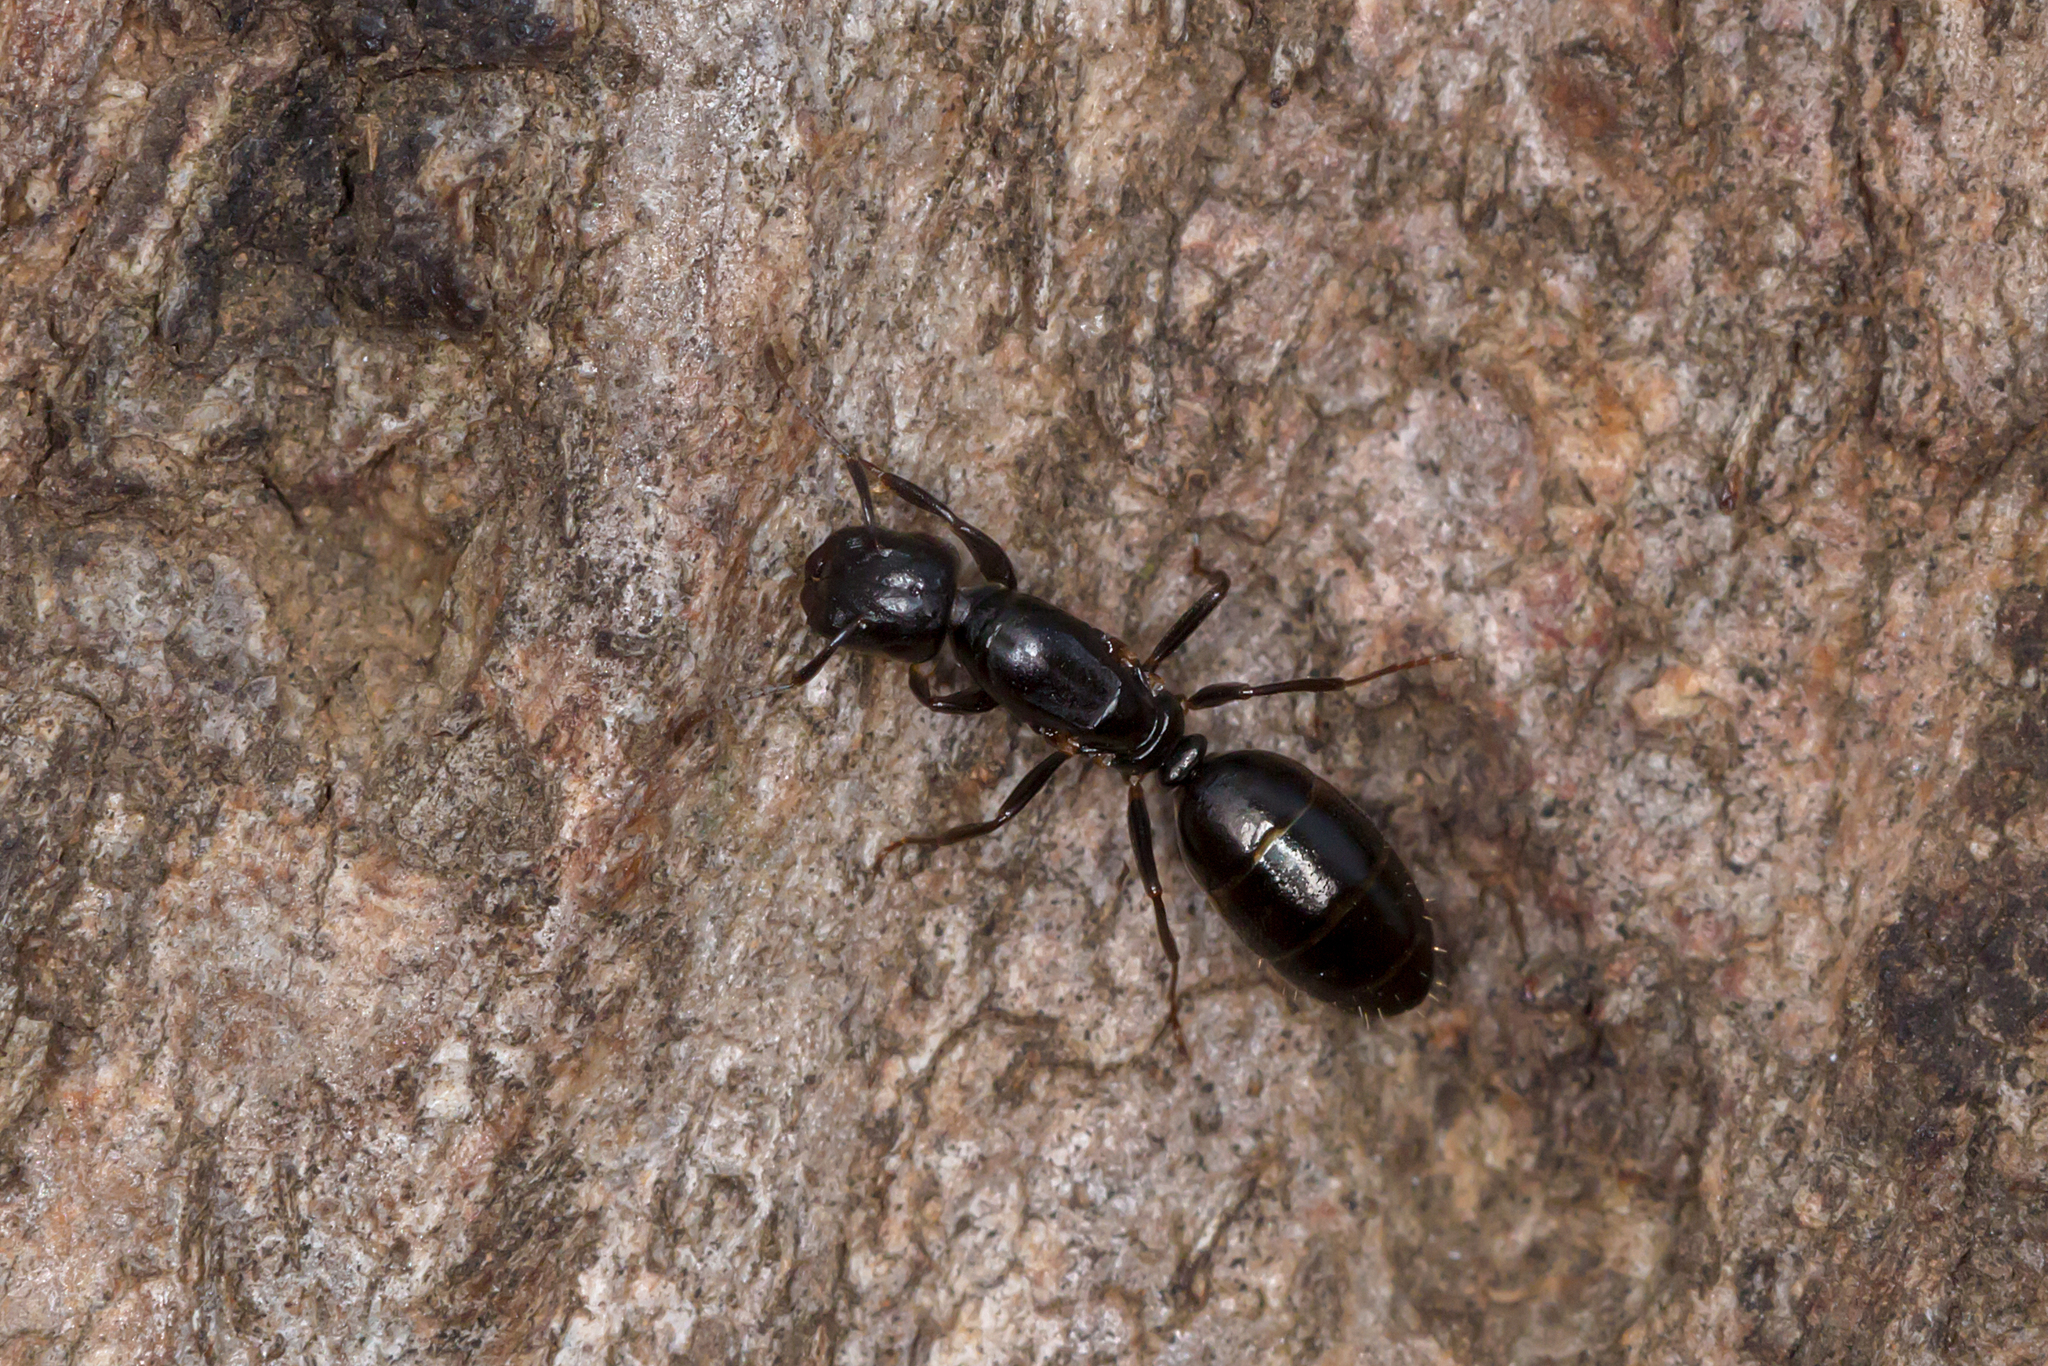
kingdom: Animalia
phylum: Arthropoda
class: Insecta
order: Hymenoptera
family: Formicidae
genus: Colobopsis
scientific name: Colobopsis gasseri
